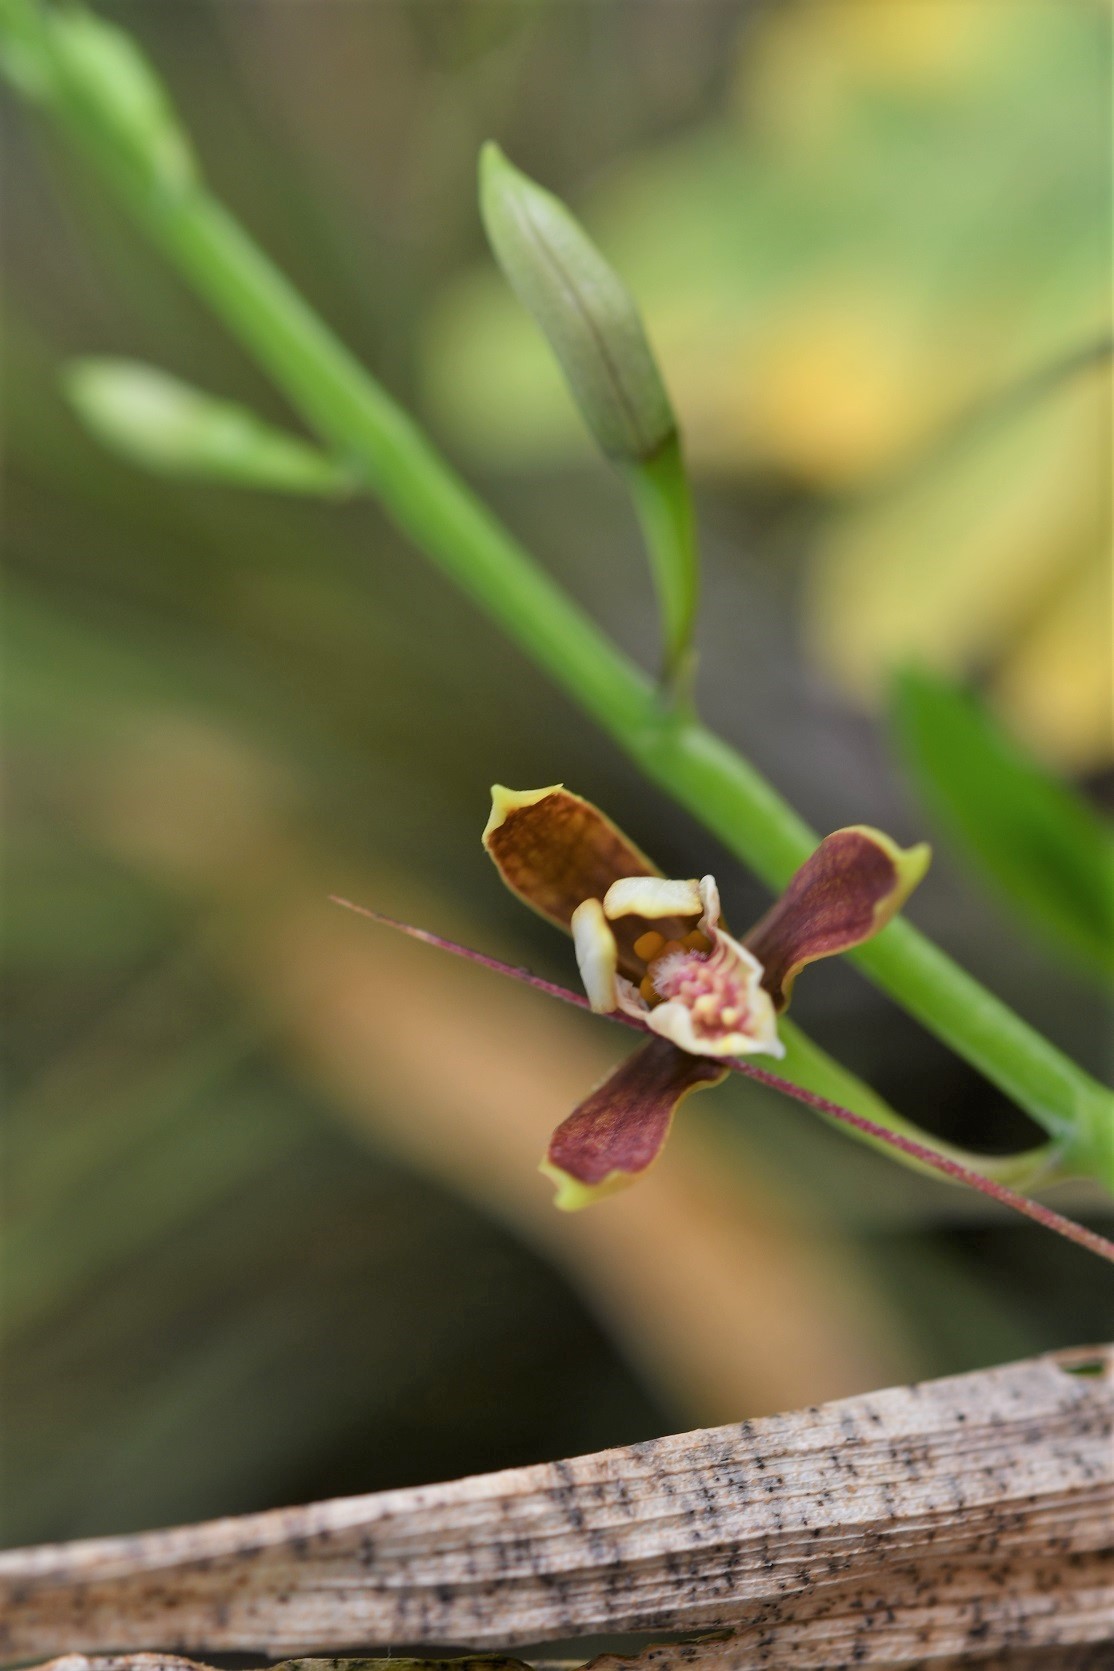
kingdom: Plantae
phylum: Tracheophyta
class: Liliopsida
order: Asparagales
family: Orchidaceae
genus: Prosthechea
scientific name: Prosthechea livida
